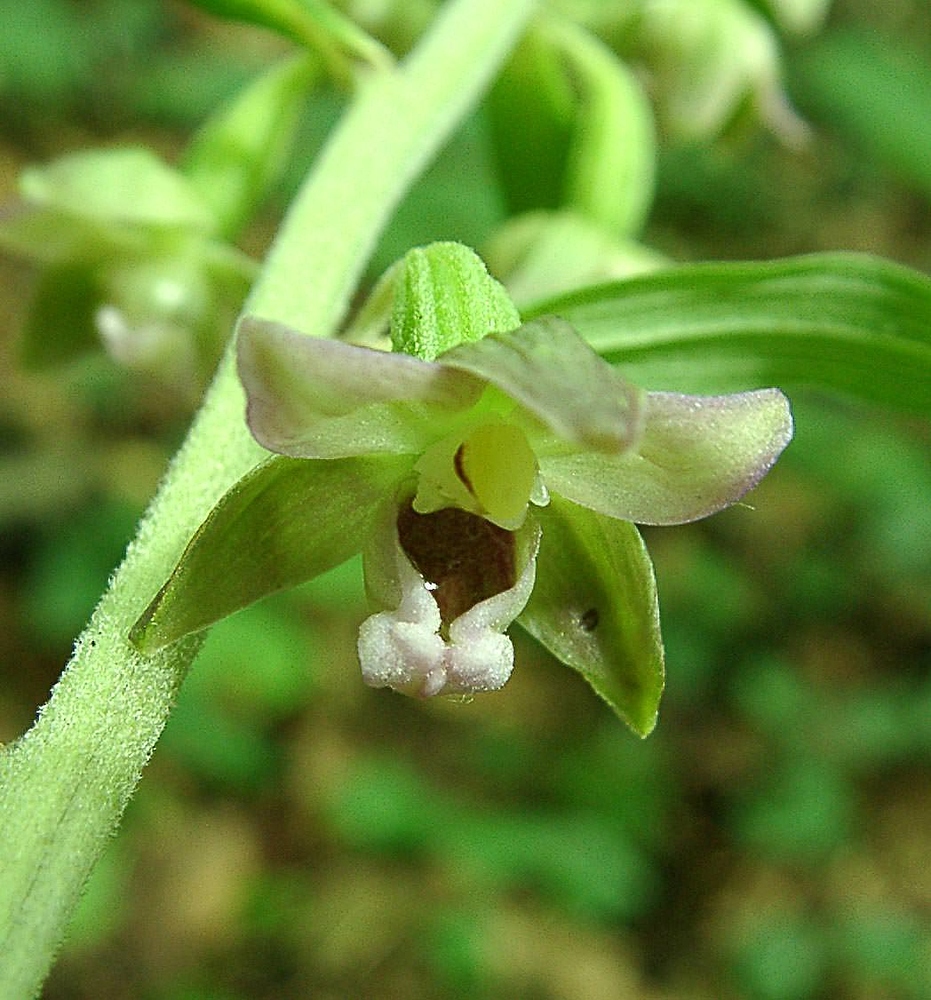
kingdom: Plantae
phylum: Tracheophyta
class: Liliopsida
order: Asparagales
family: Orchidaceae
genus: Epipactis
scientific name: Epipactis leptochila
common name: Narrow-lipped helleborine
